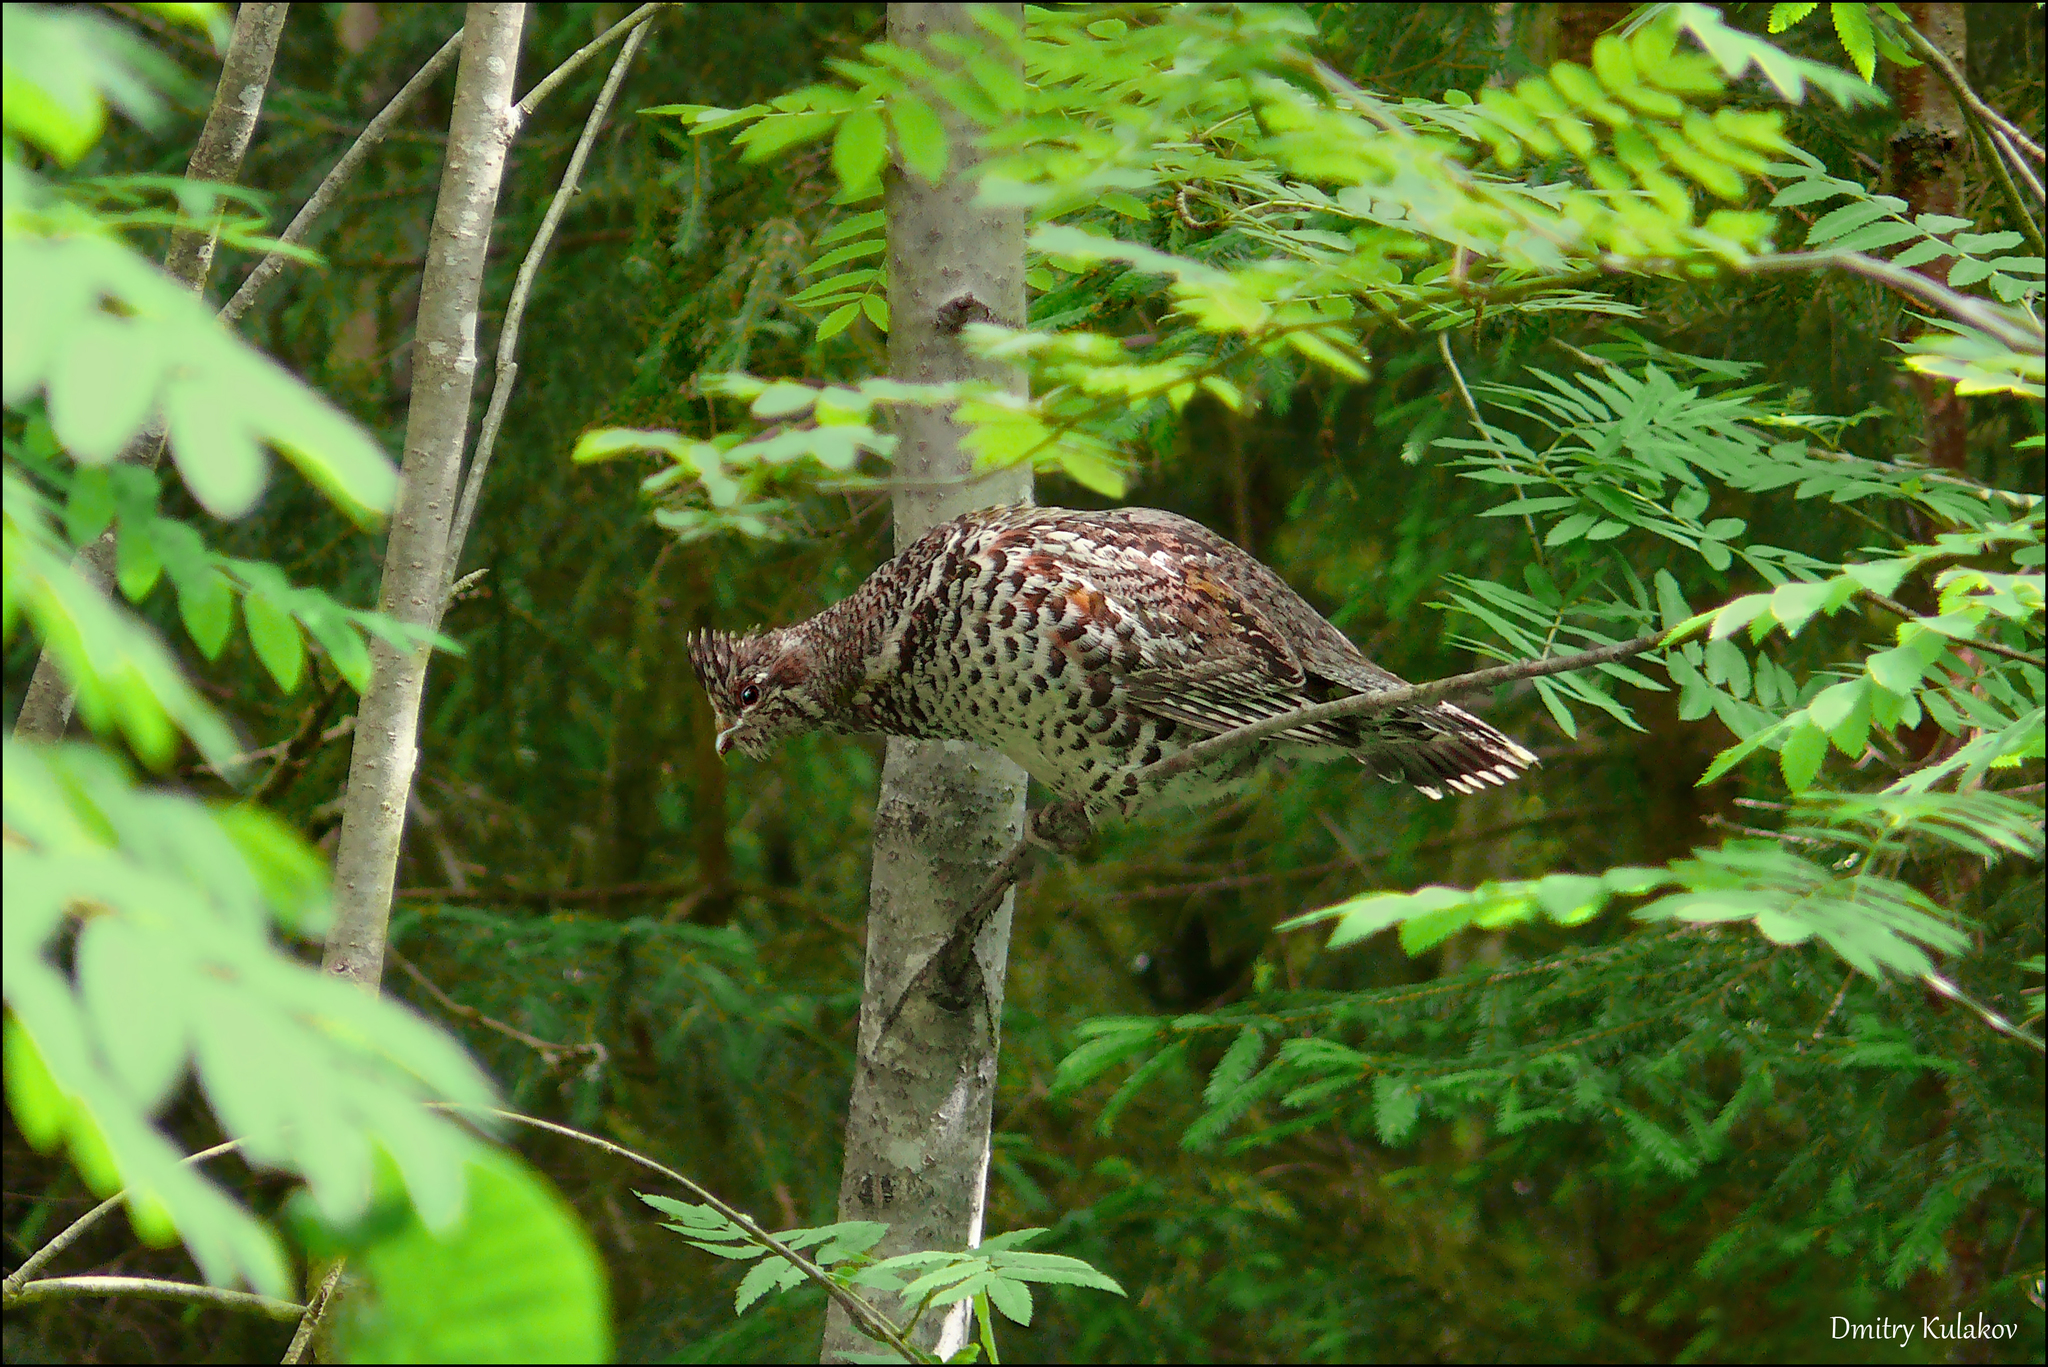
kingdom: Animalia
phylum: Chordata
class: Aves
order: Galliformes
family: Phasianidae
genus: Tetrastes
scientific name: Tetrastes bonasia
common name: Hazel grouse
